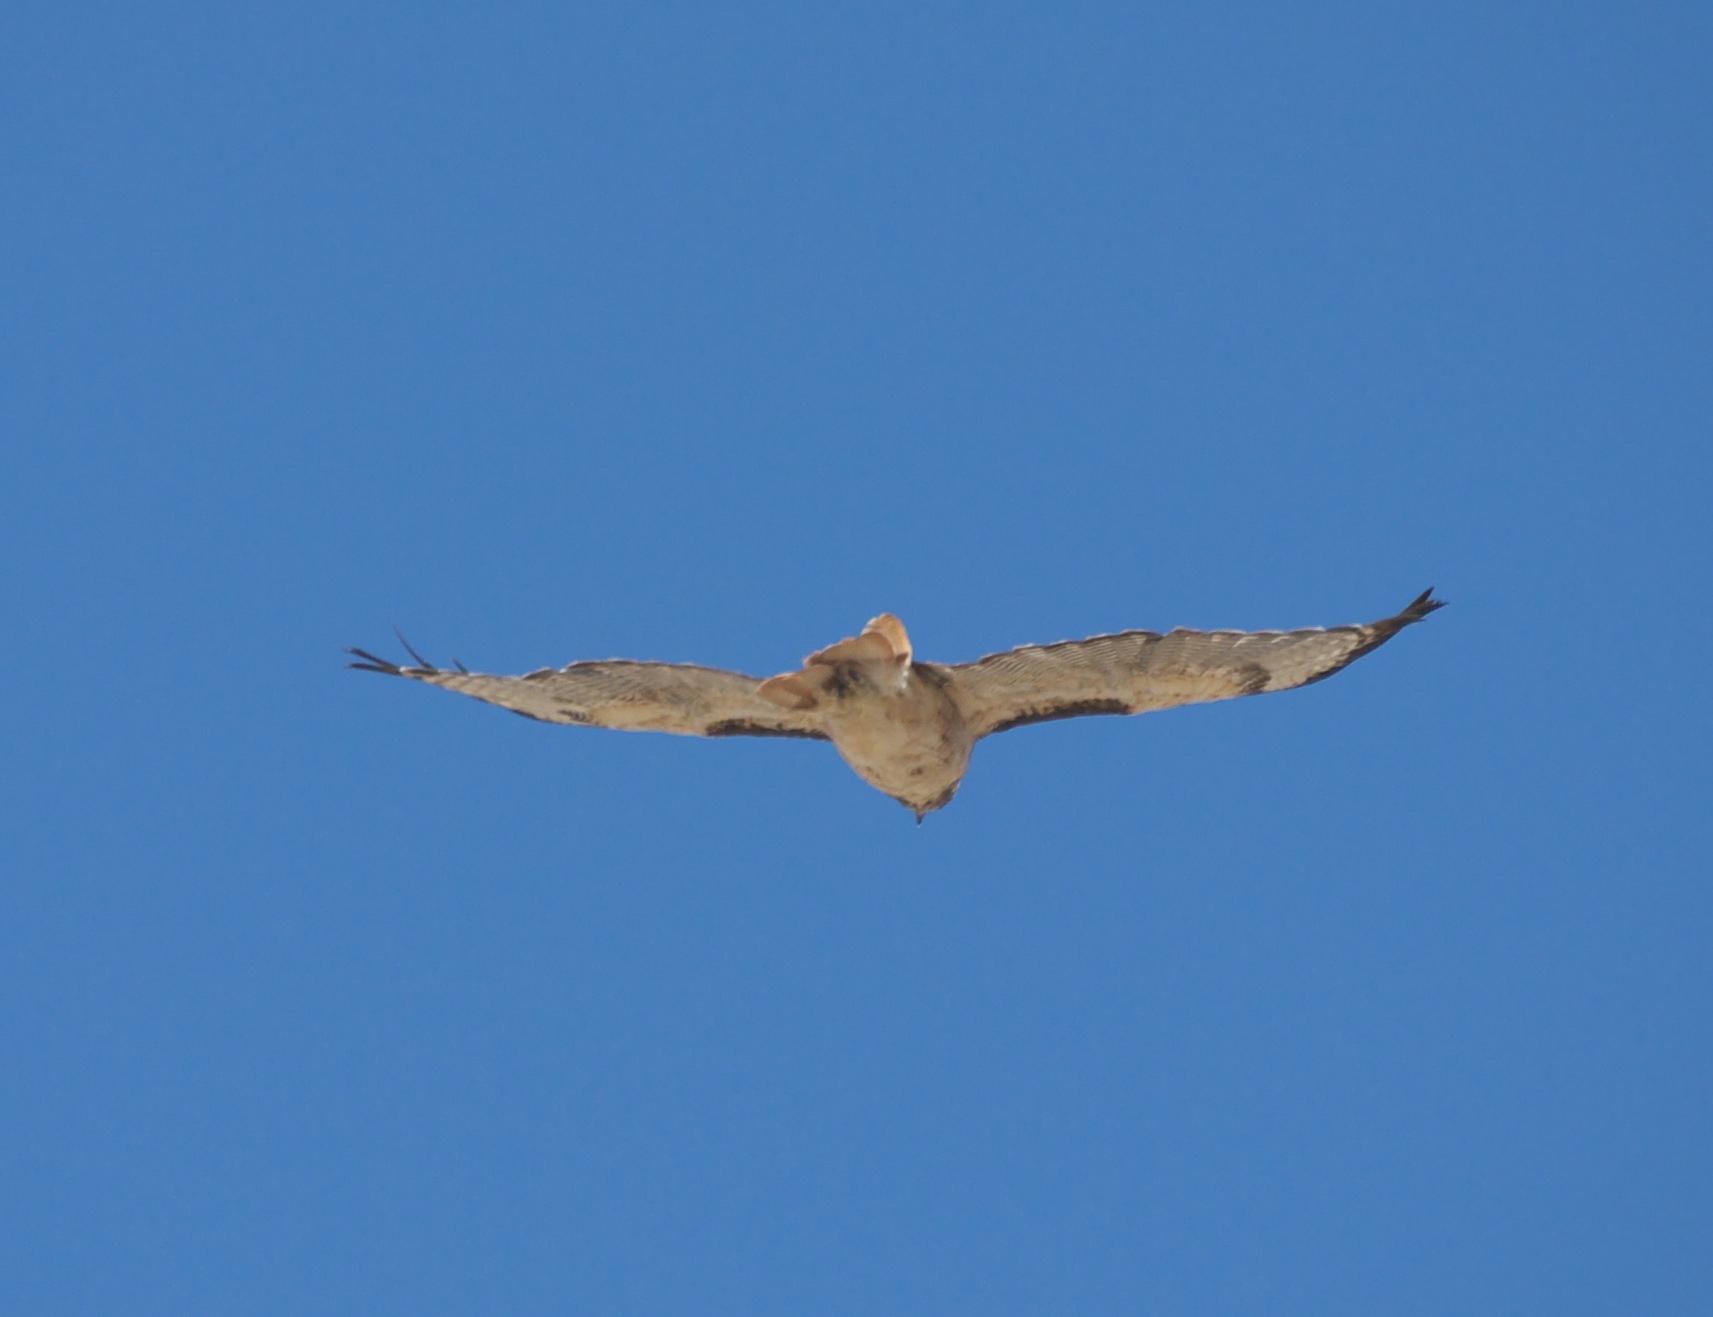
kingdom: Animalia
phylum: Chordata
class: Aves
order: Accipitriformes
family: Accipitridae
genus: Buteo
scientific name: Buteo jamaicensis
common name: Red-tailed hawk
